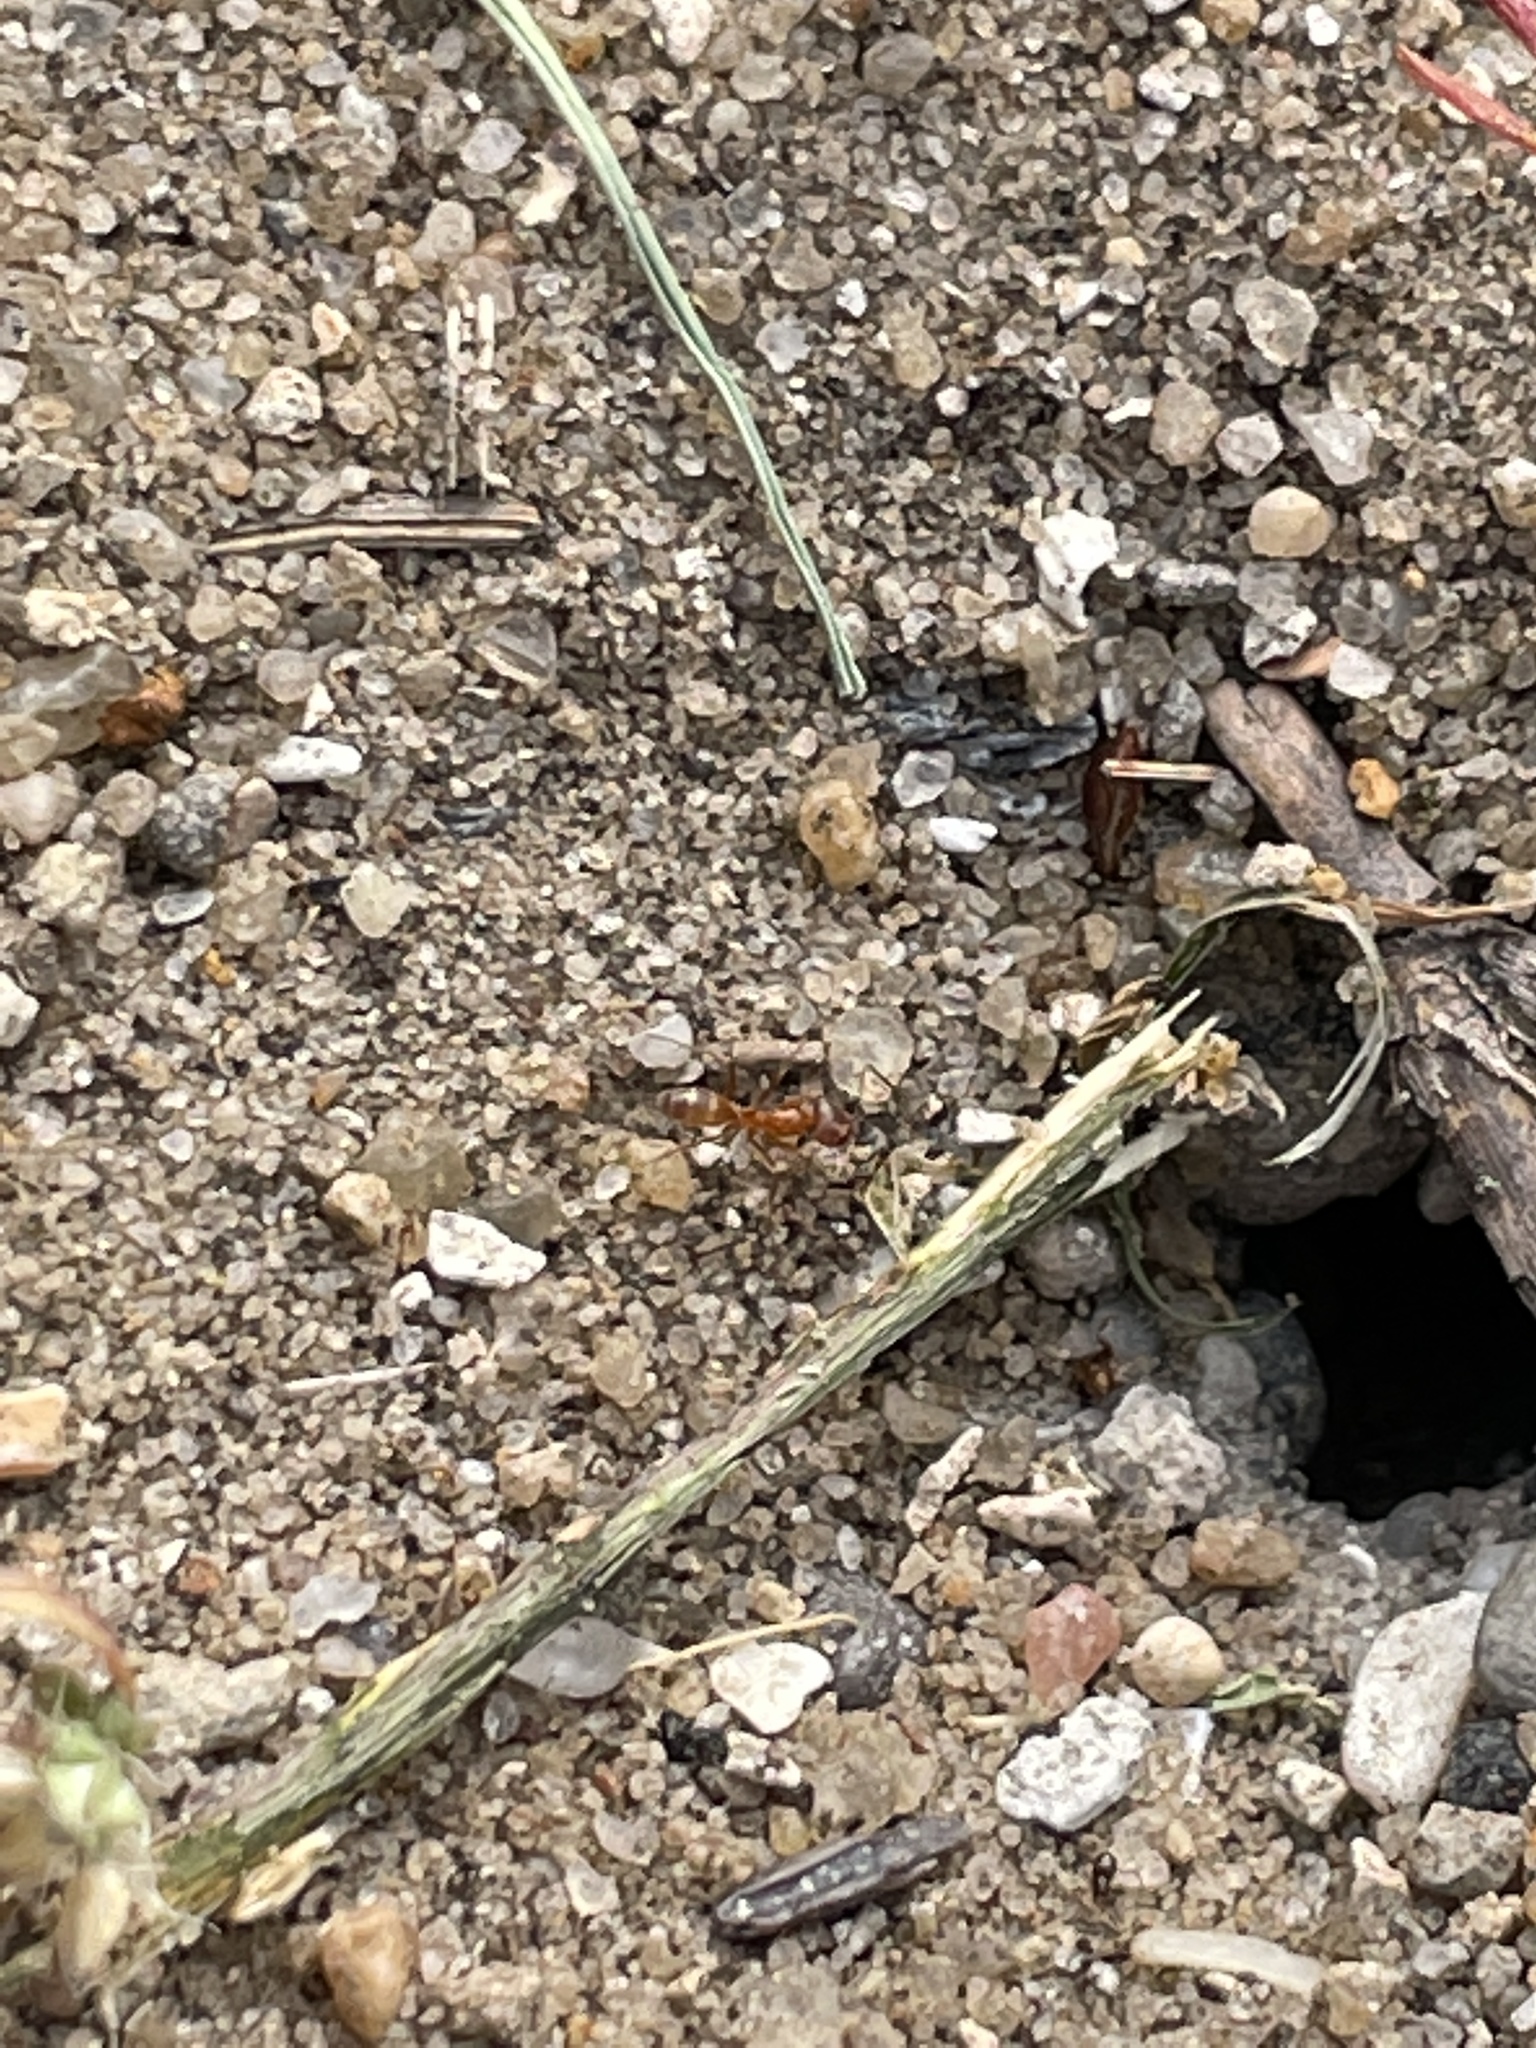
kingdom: Animalia
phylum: Arthropoda
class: Insecta
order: Hymenoptera
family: Formicidae
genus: Dorymyrmex
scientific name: Dorymyrmex bureni
